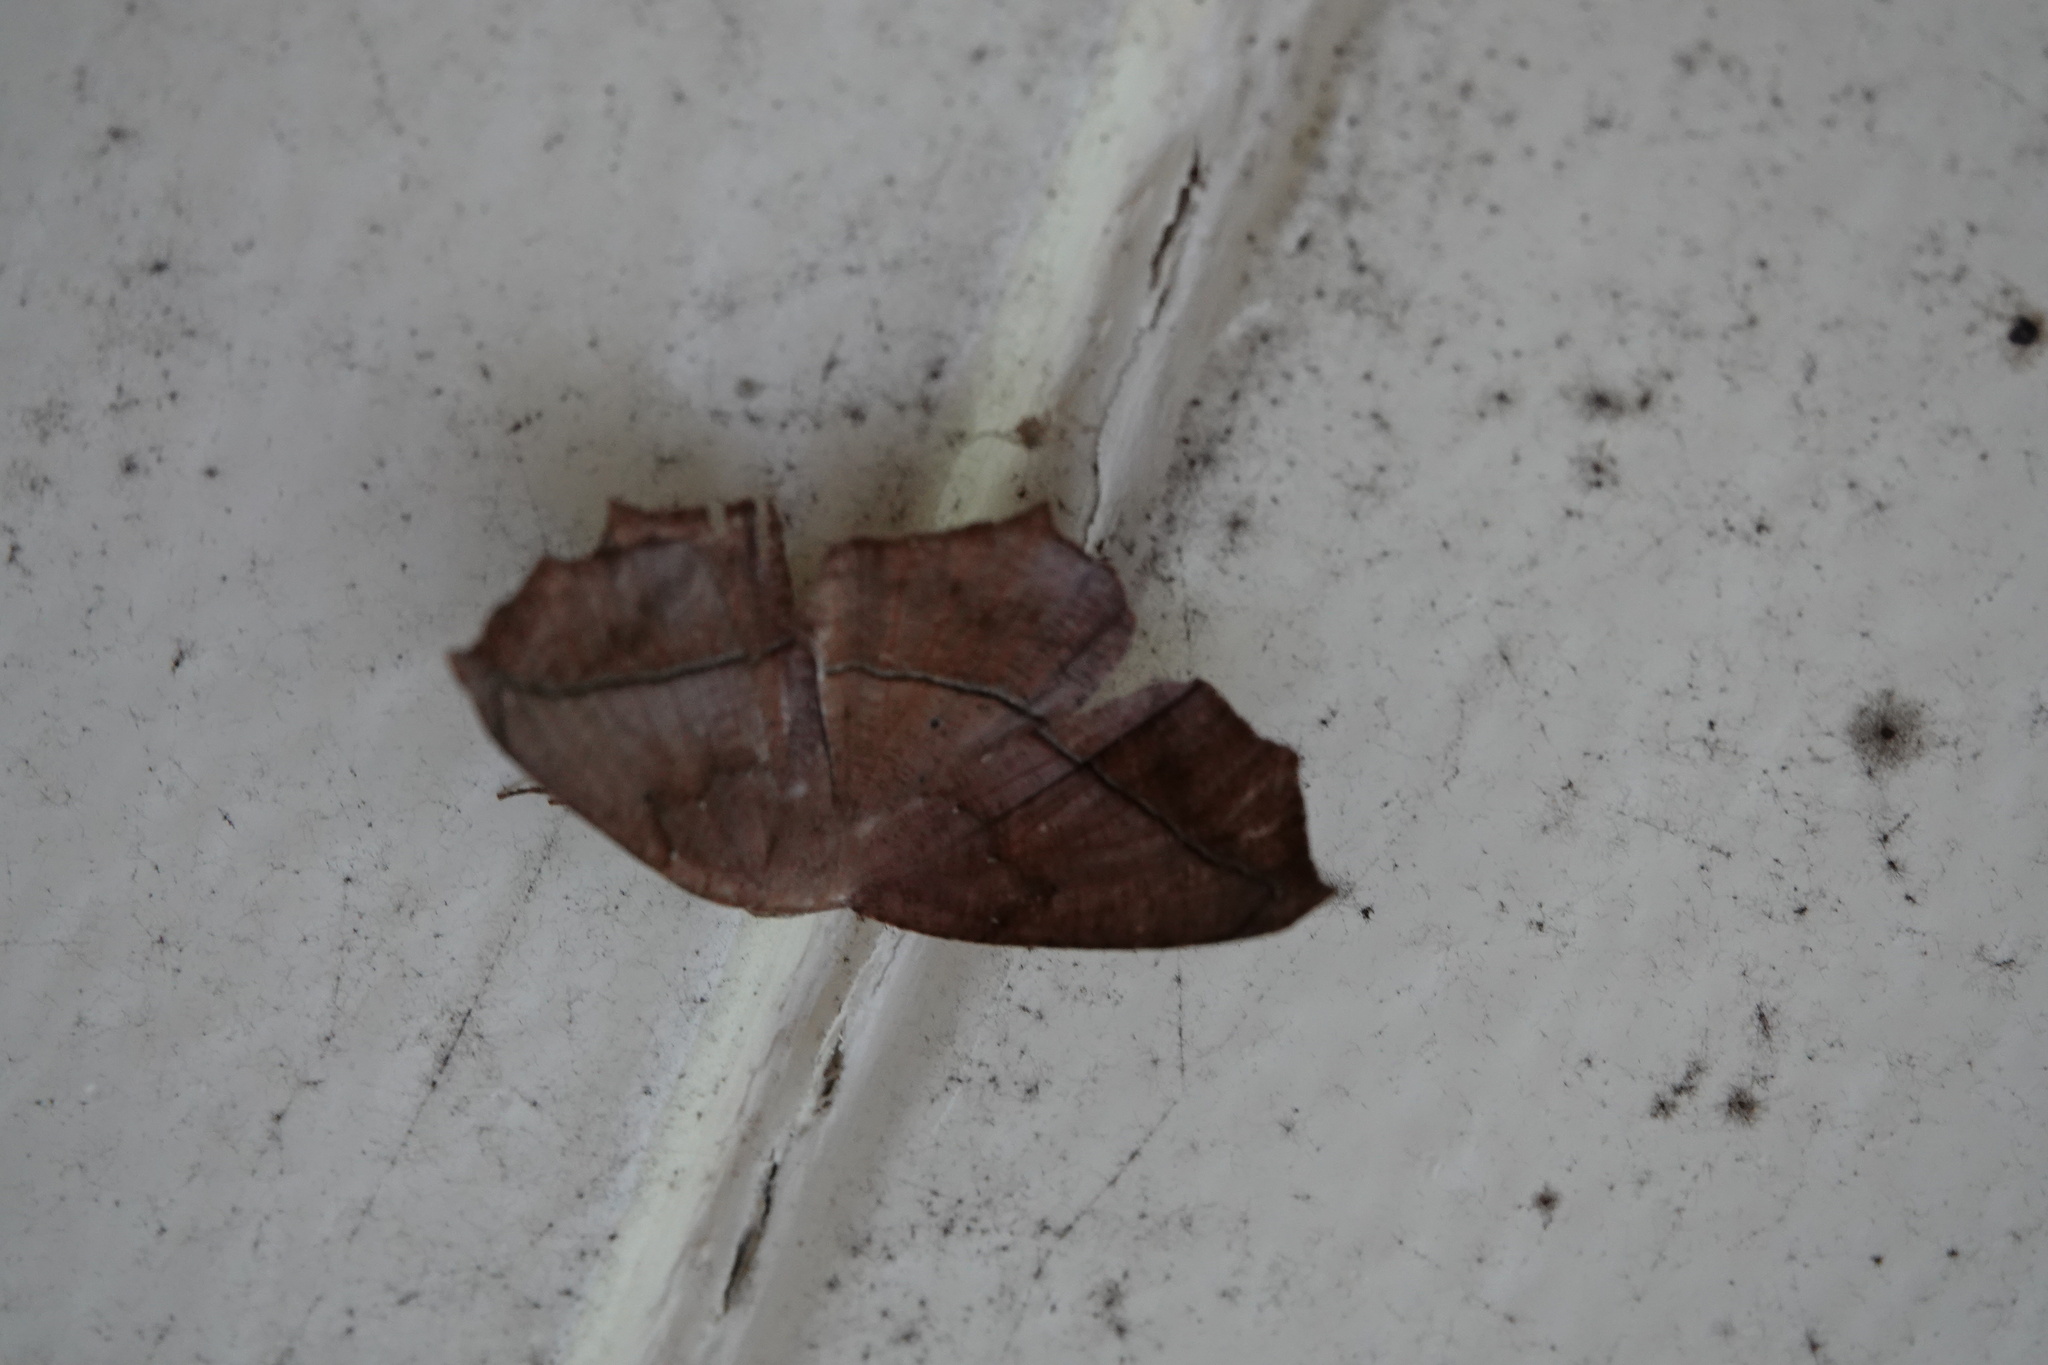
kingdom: Animalia
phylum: Arthropoda
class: Insecta
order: Lepidoptera
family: Geometridae
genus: Prochoerodes
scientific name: Prochoerodes lineola
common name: Large maple spanworm
